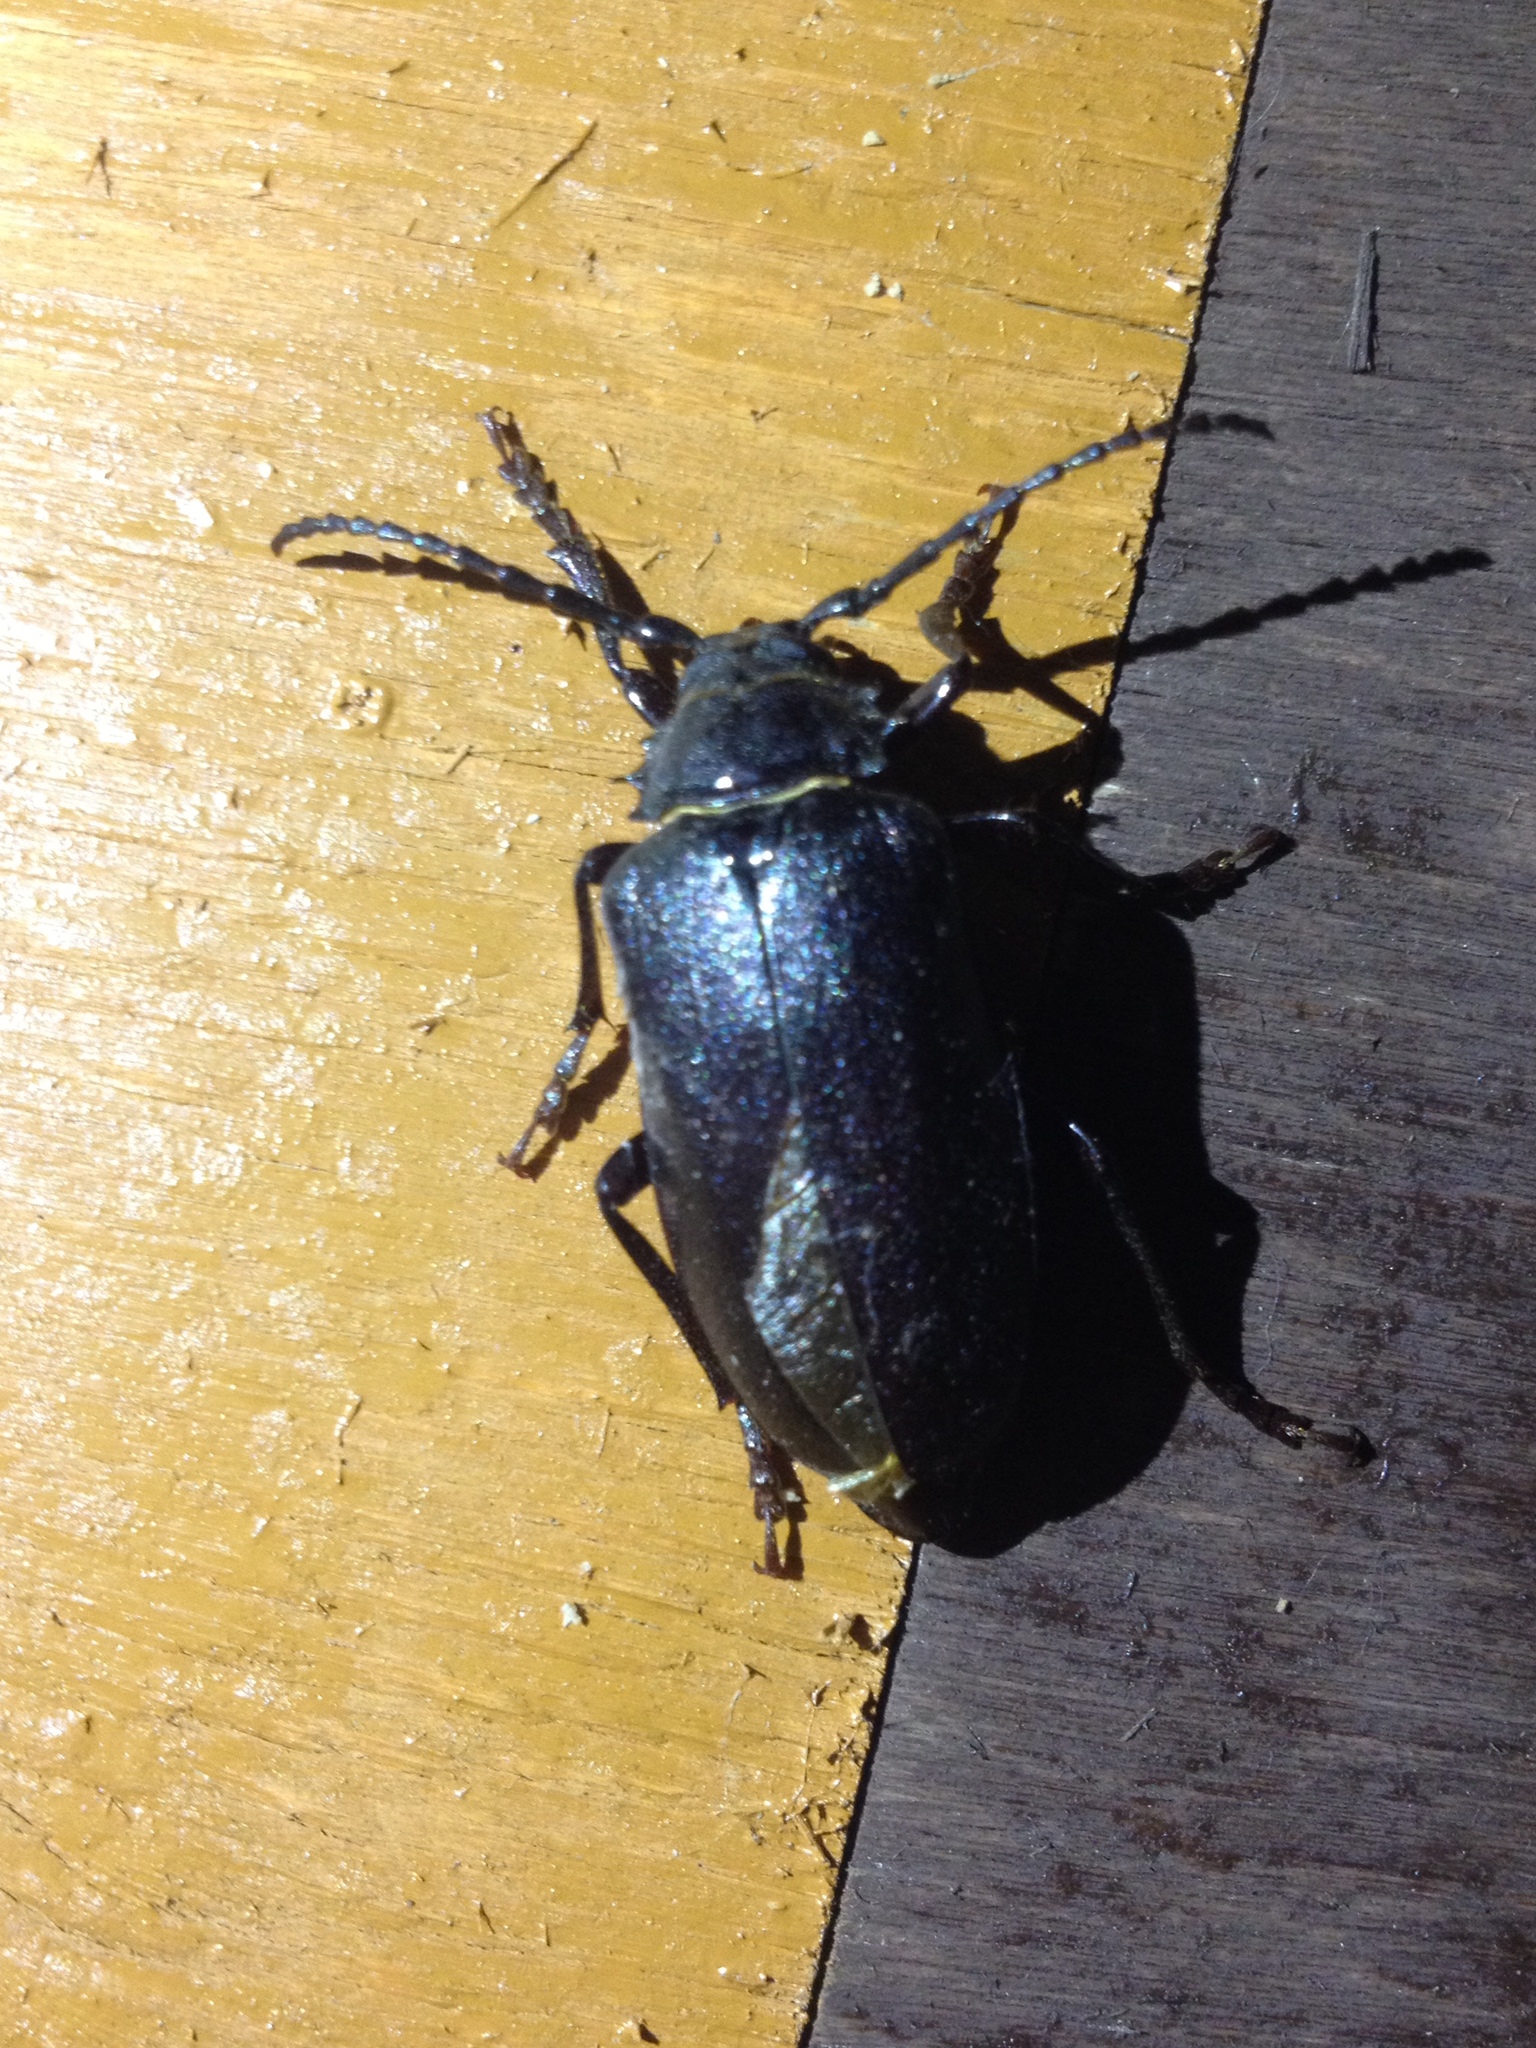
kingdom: Animalia
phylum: Arthropoda
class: Insecta
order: Coleoptera
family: Cerambycidae
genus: Prionus
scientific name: Prionus coriarius
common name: Tanner beetle
